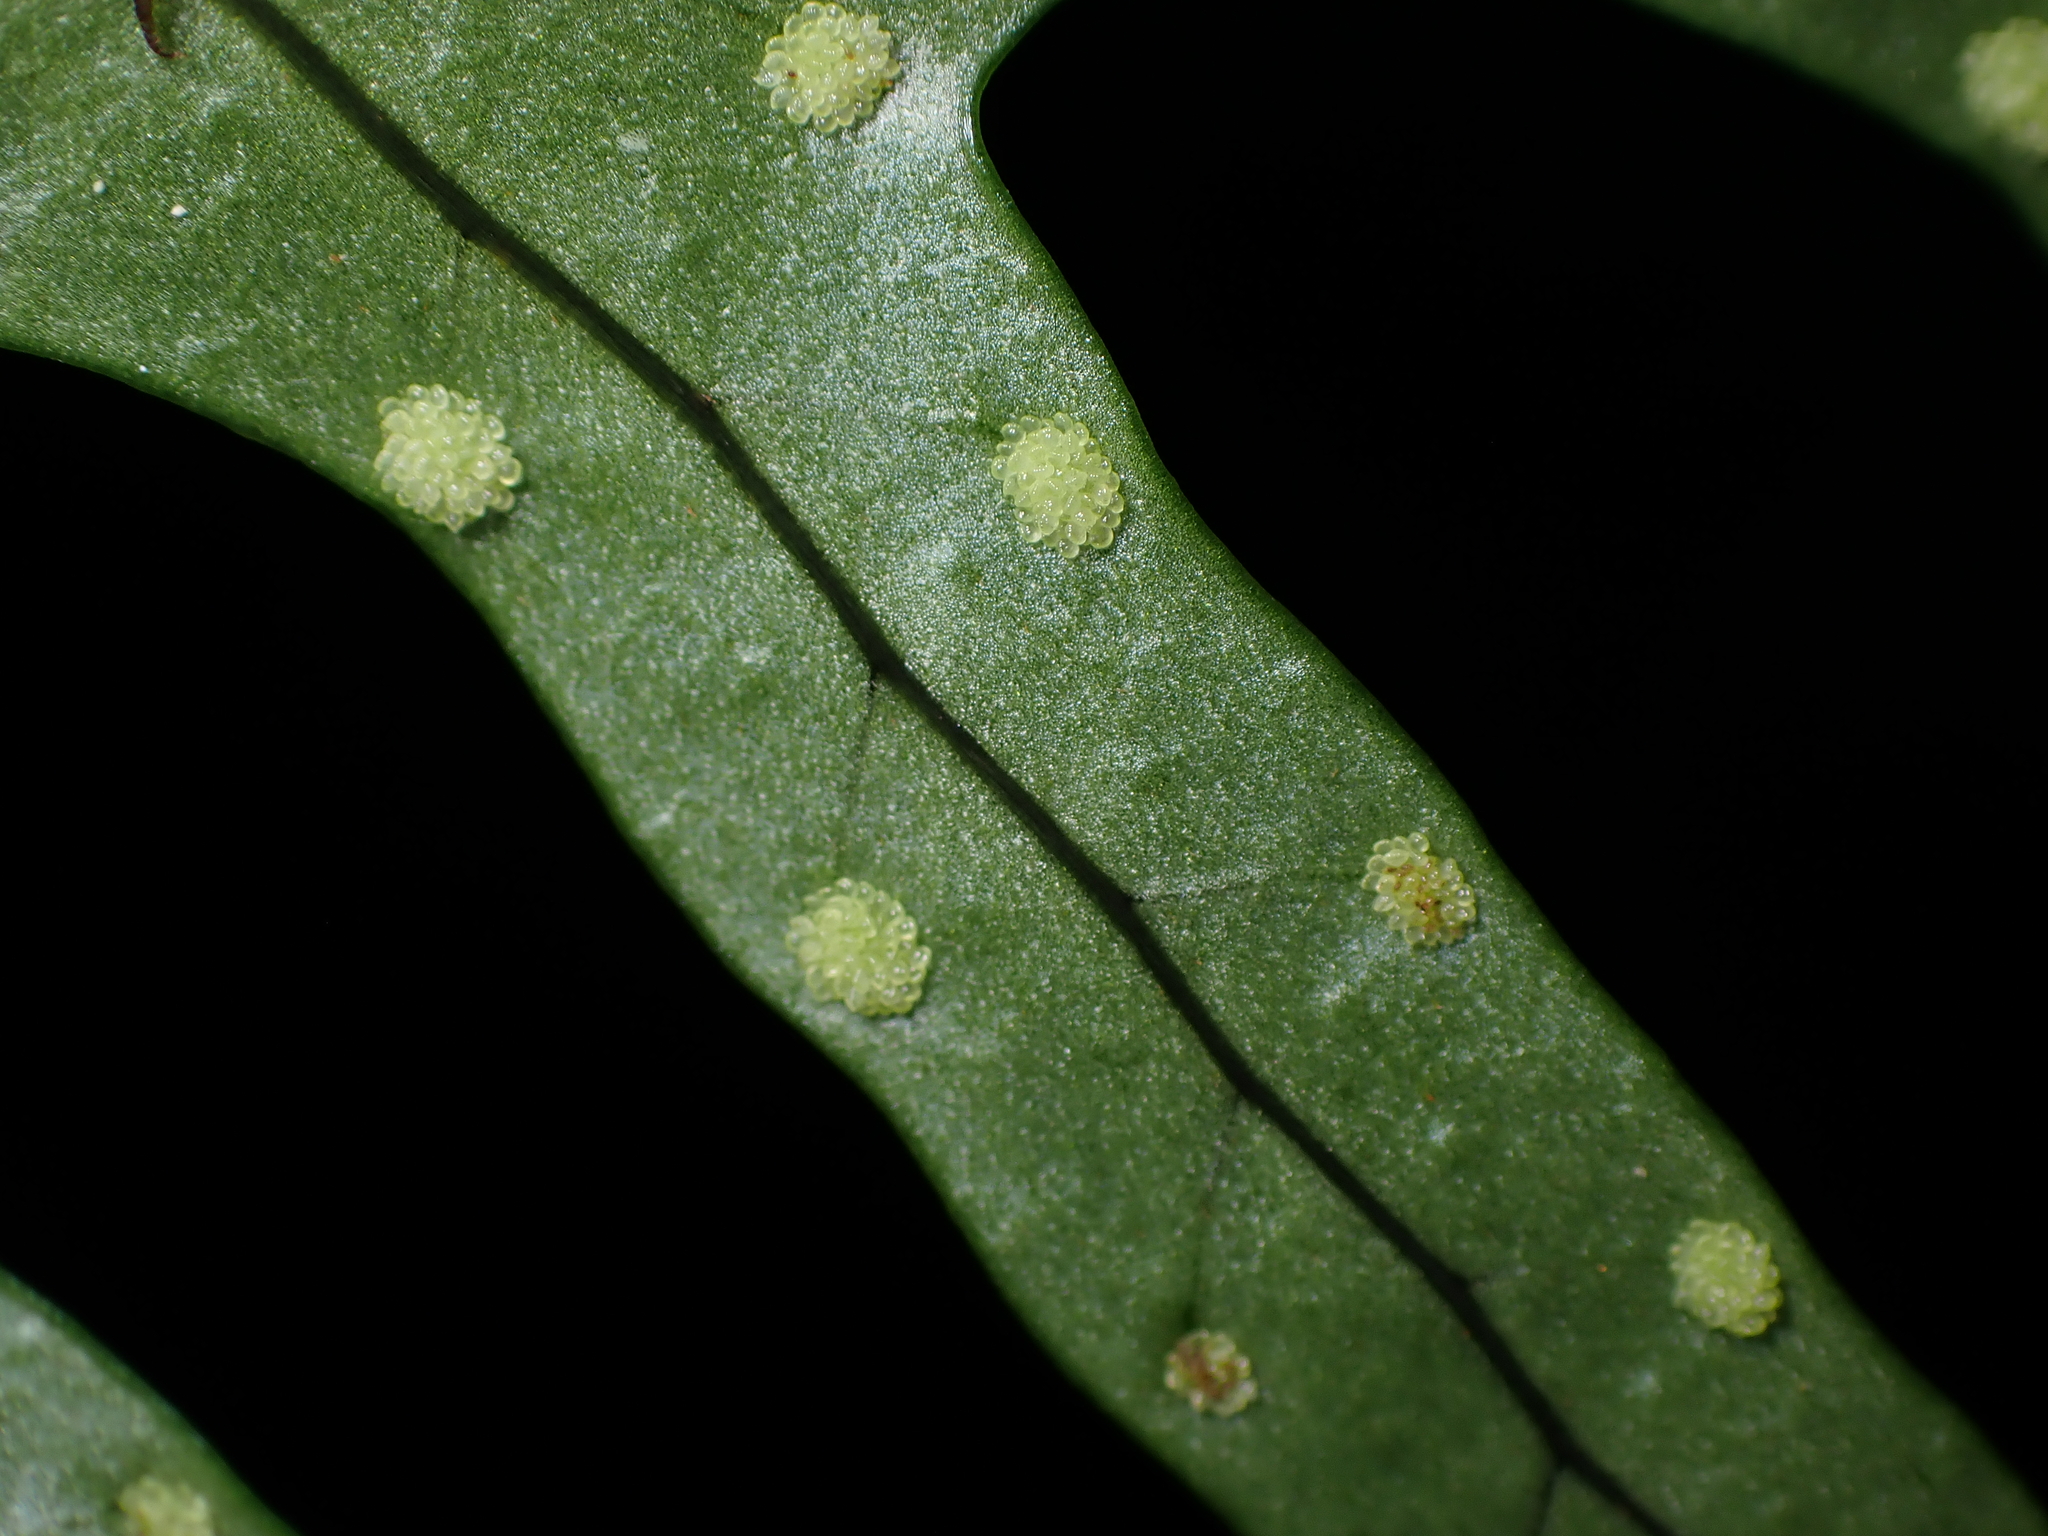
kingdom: Plantae
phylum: Tracheophyta
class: Polypodiopsida
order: Polypodiales
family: Polypodiaceae
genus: Lecanopteris
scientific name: Lecanopteris scandens
